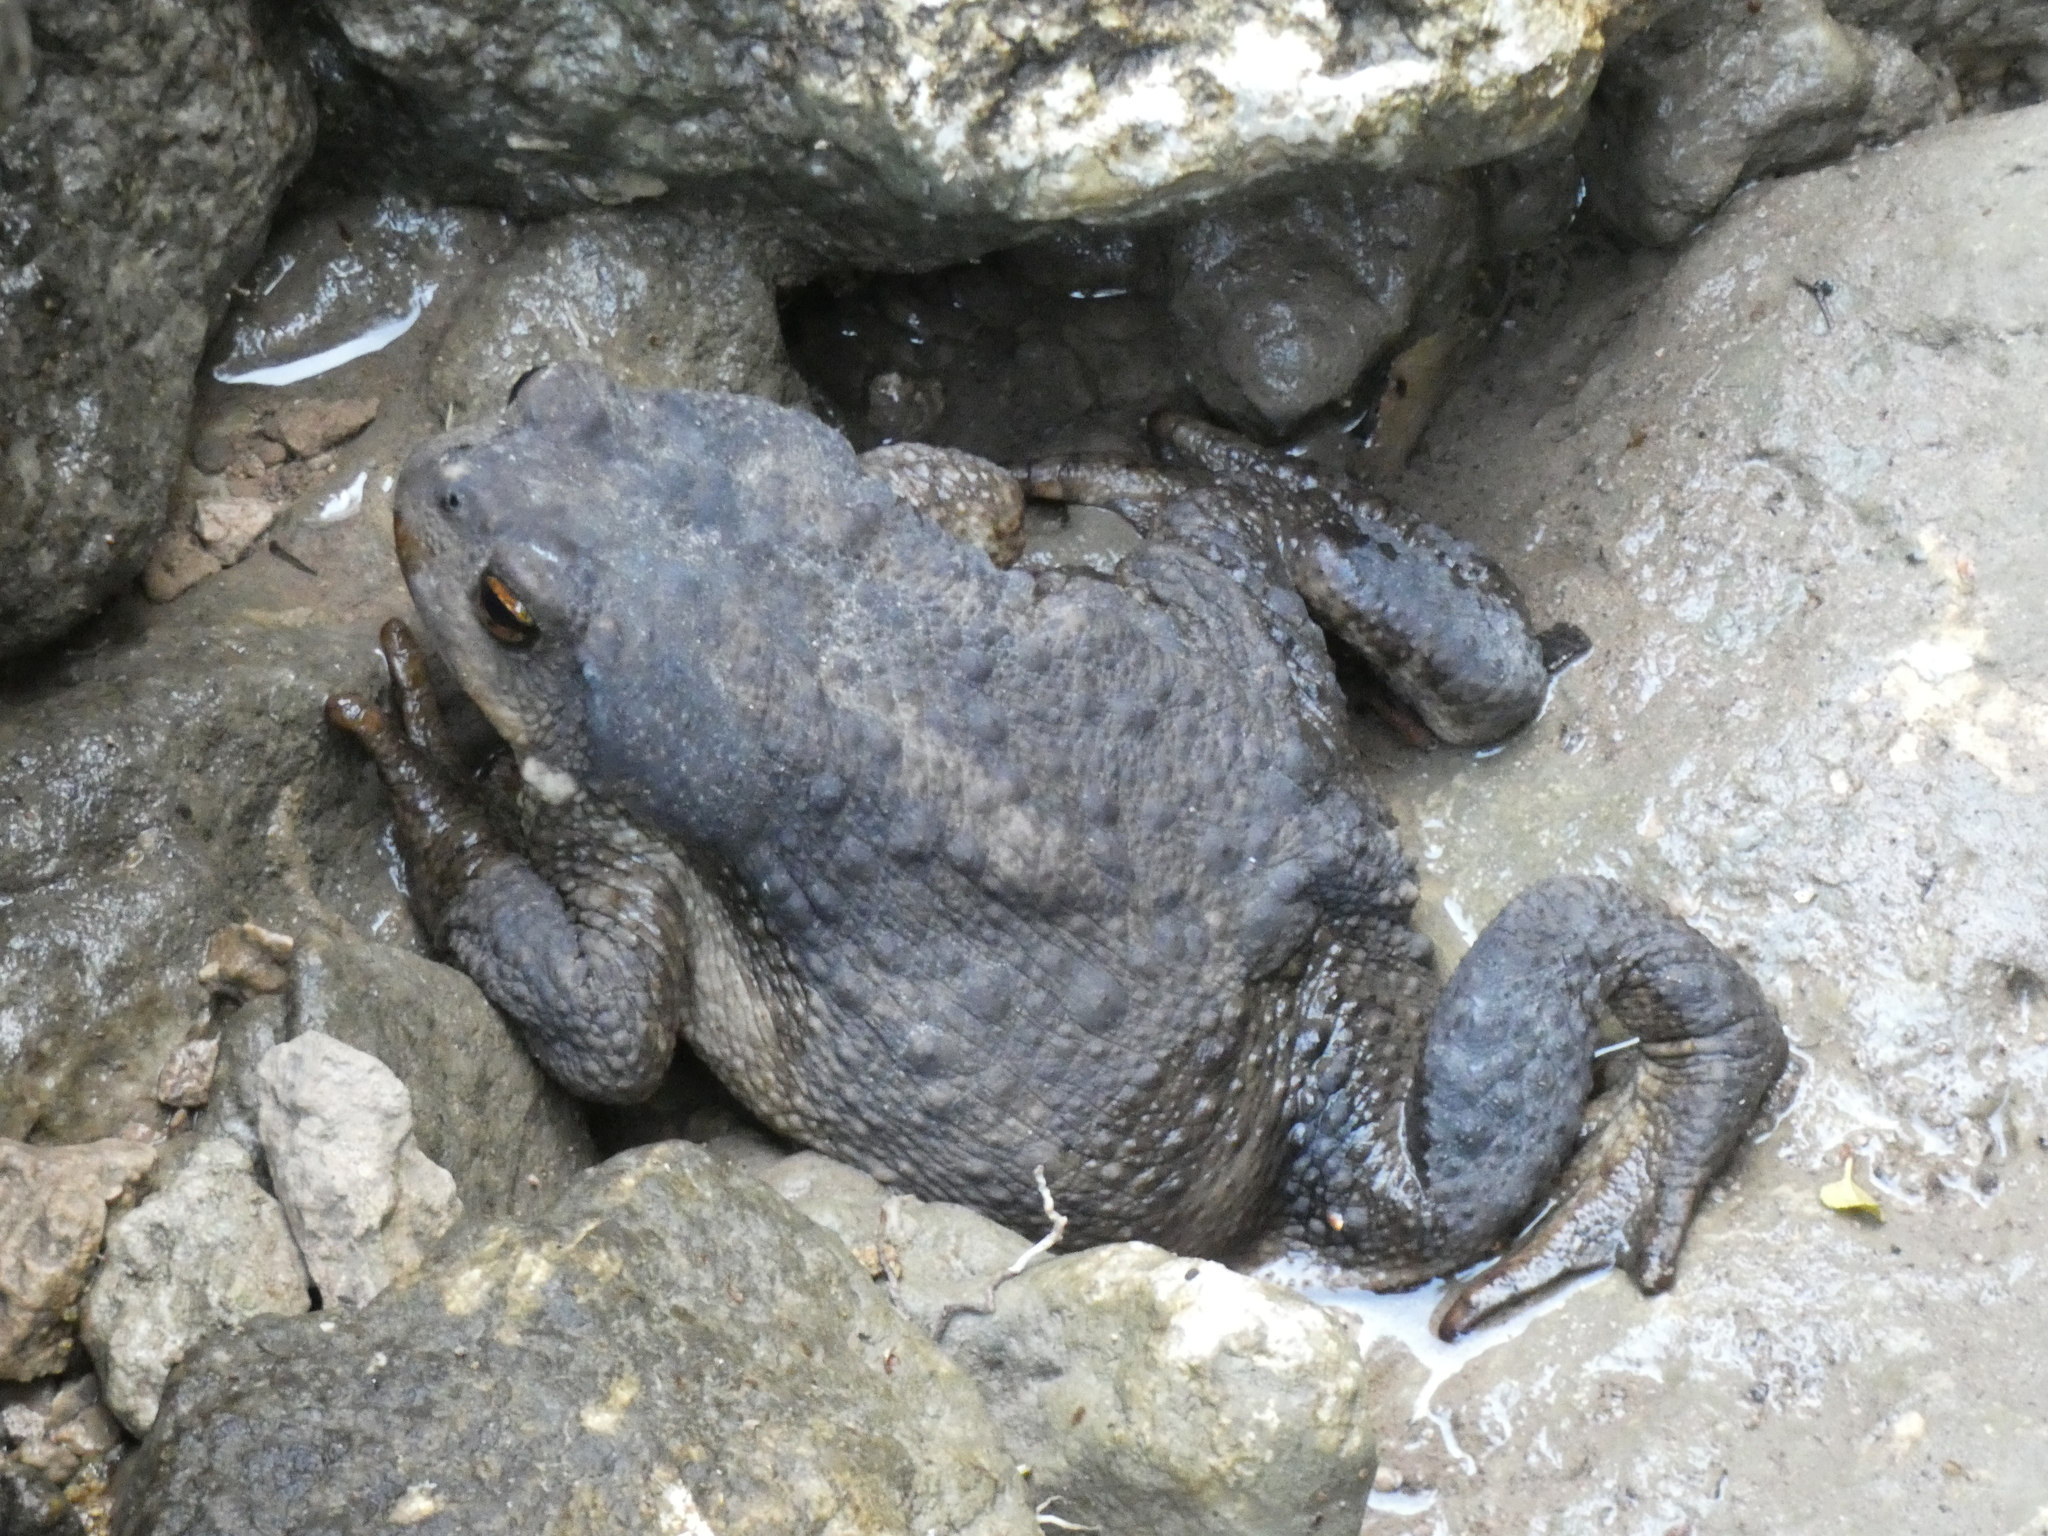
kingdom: Animalia
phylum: Chordata
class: Amphibia
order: Anura
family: Bufonidae
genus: Bufo
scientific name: Bufo spinosus
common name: Western common toad
